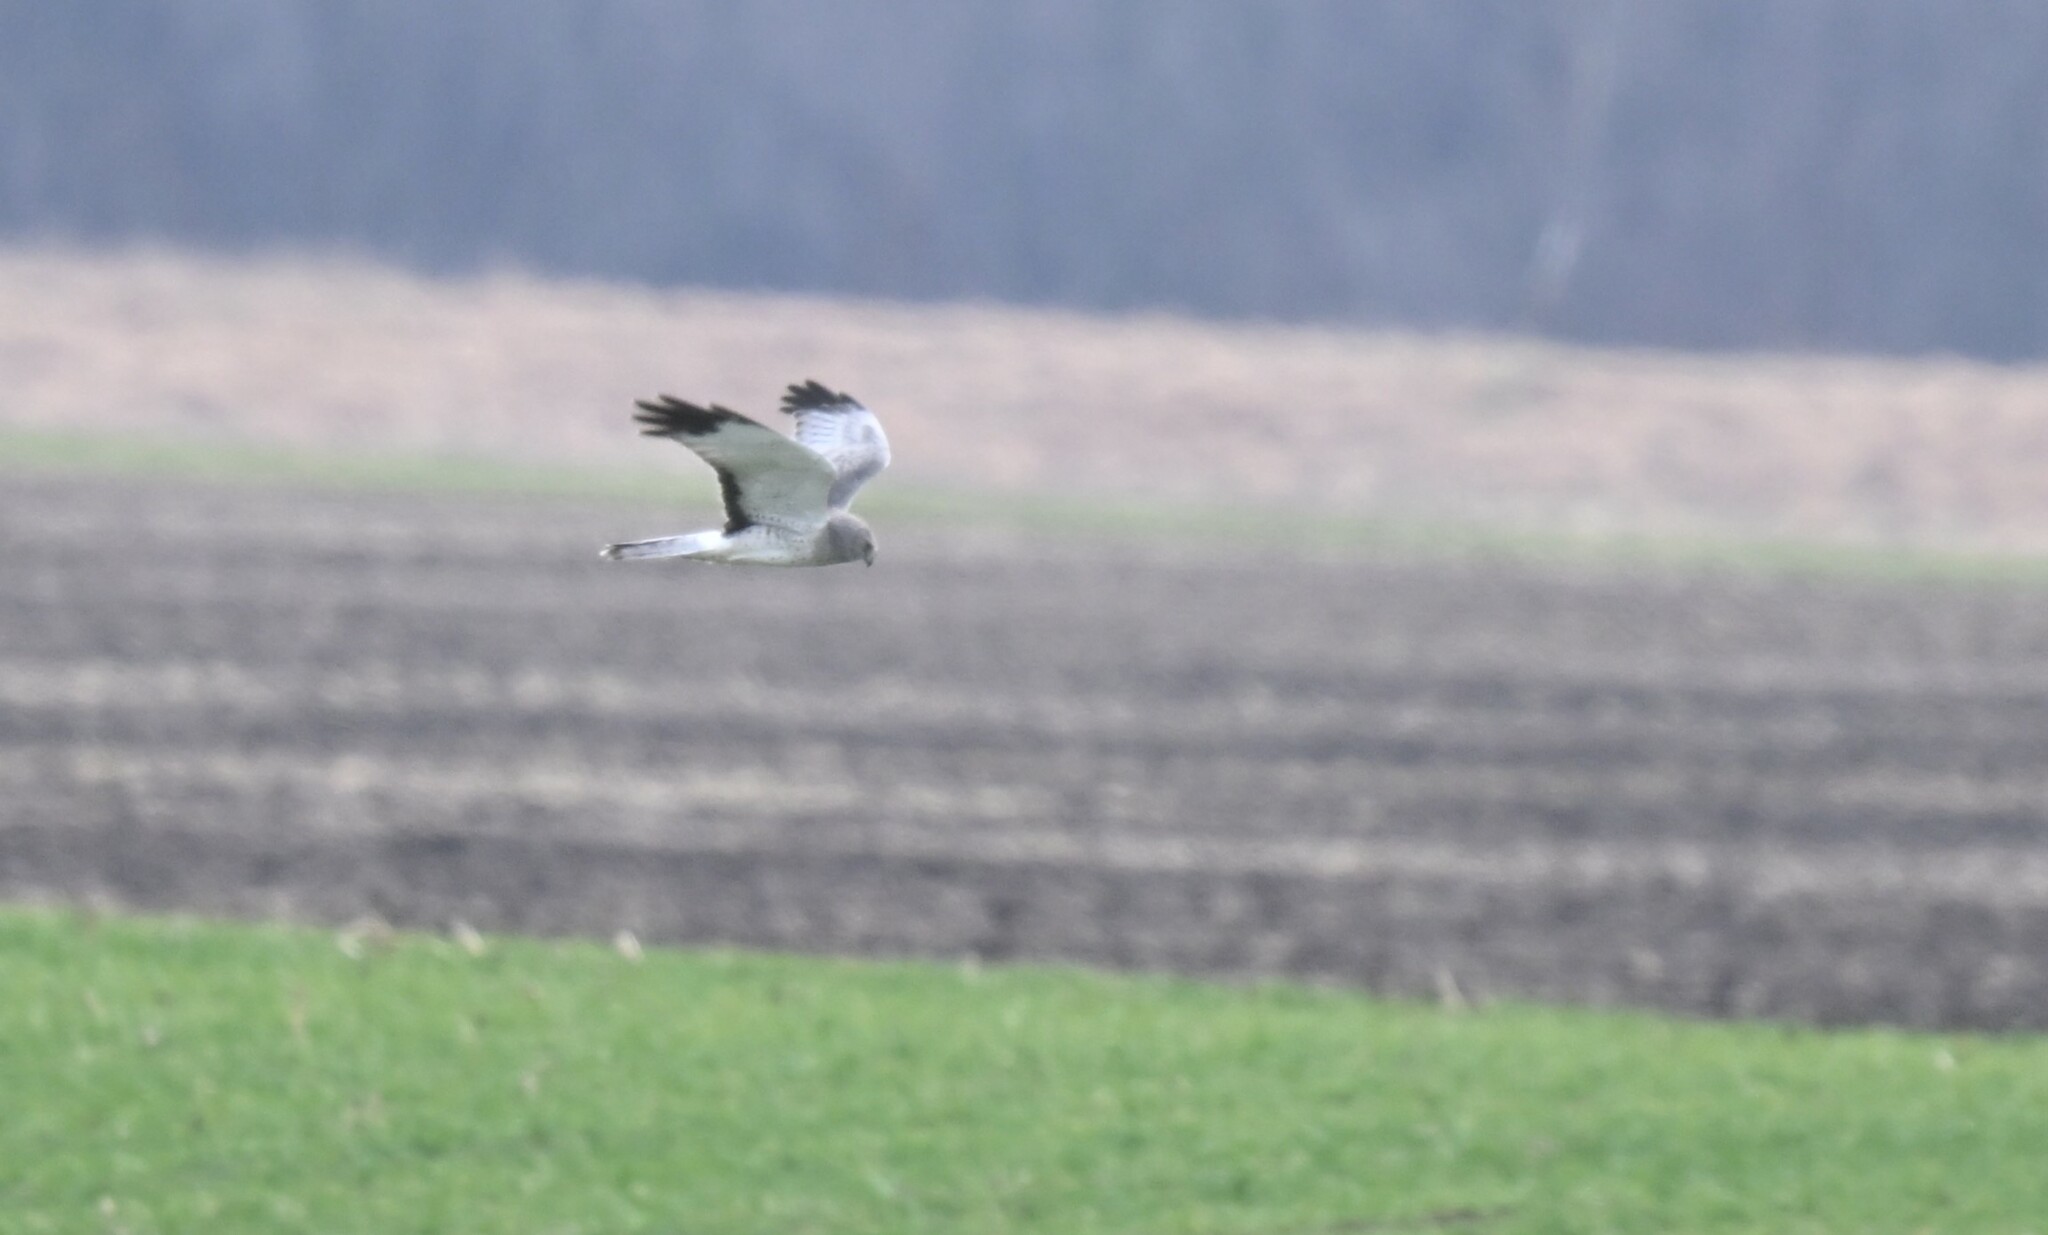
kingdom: Animalia
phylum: Chordata
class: Aves
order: Accipitriformes
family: Accipitridae
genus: Circus
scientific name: Circus cyaneus
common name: Hen harrier
